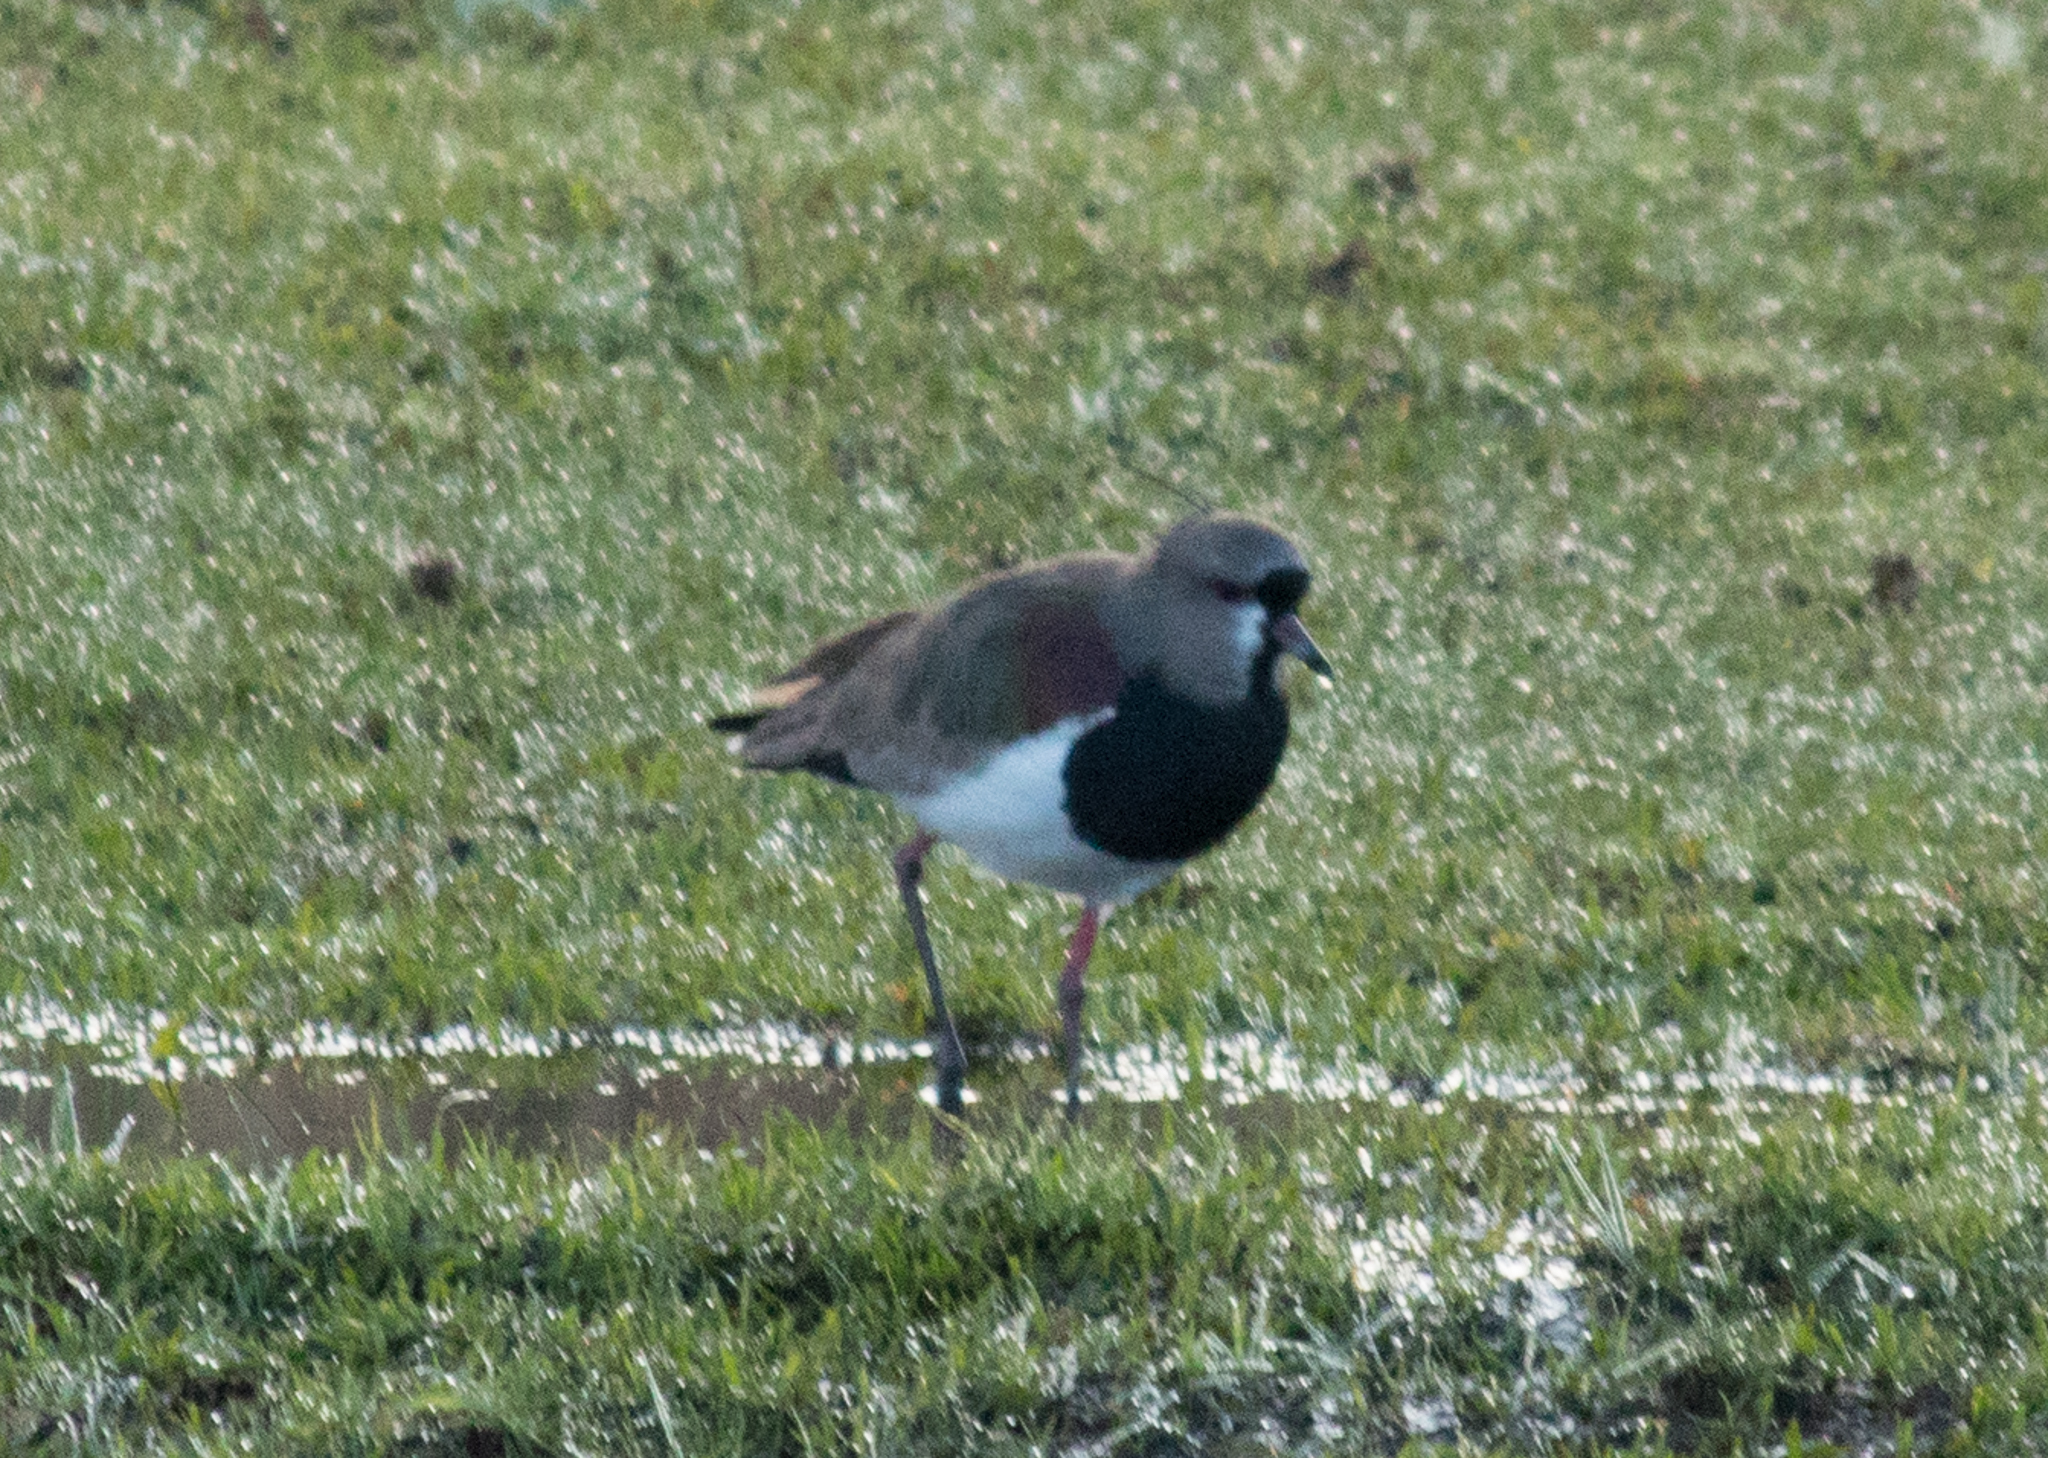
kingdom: Animalia
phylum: Chordata
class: Aves
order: Charadriiformes
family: Charadriidae
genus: Vanellus
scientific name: Vanellus chilensis
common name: Southern lapwing
